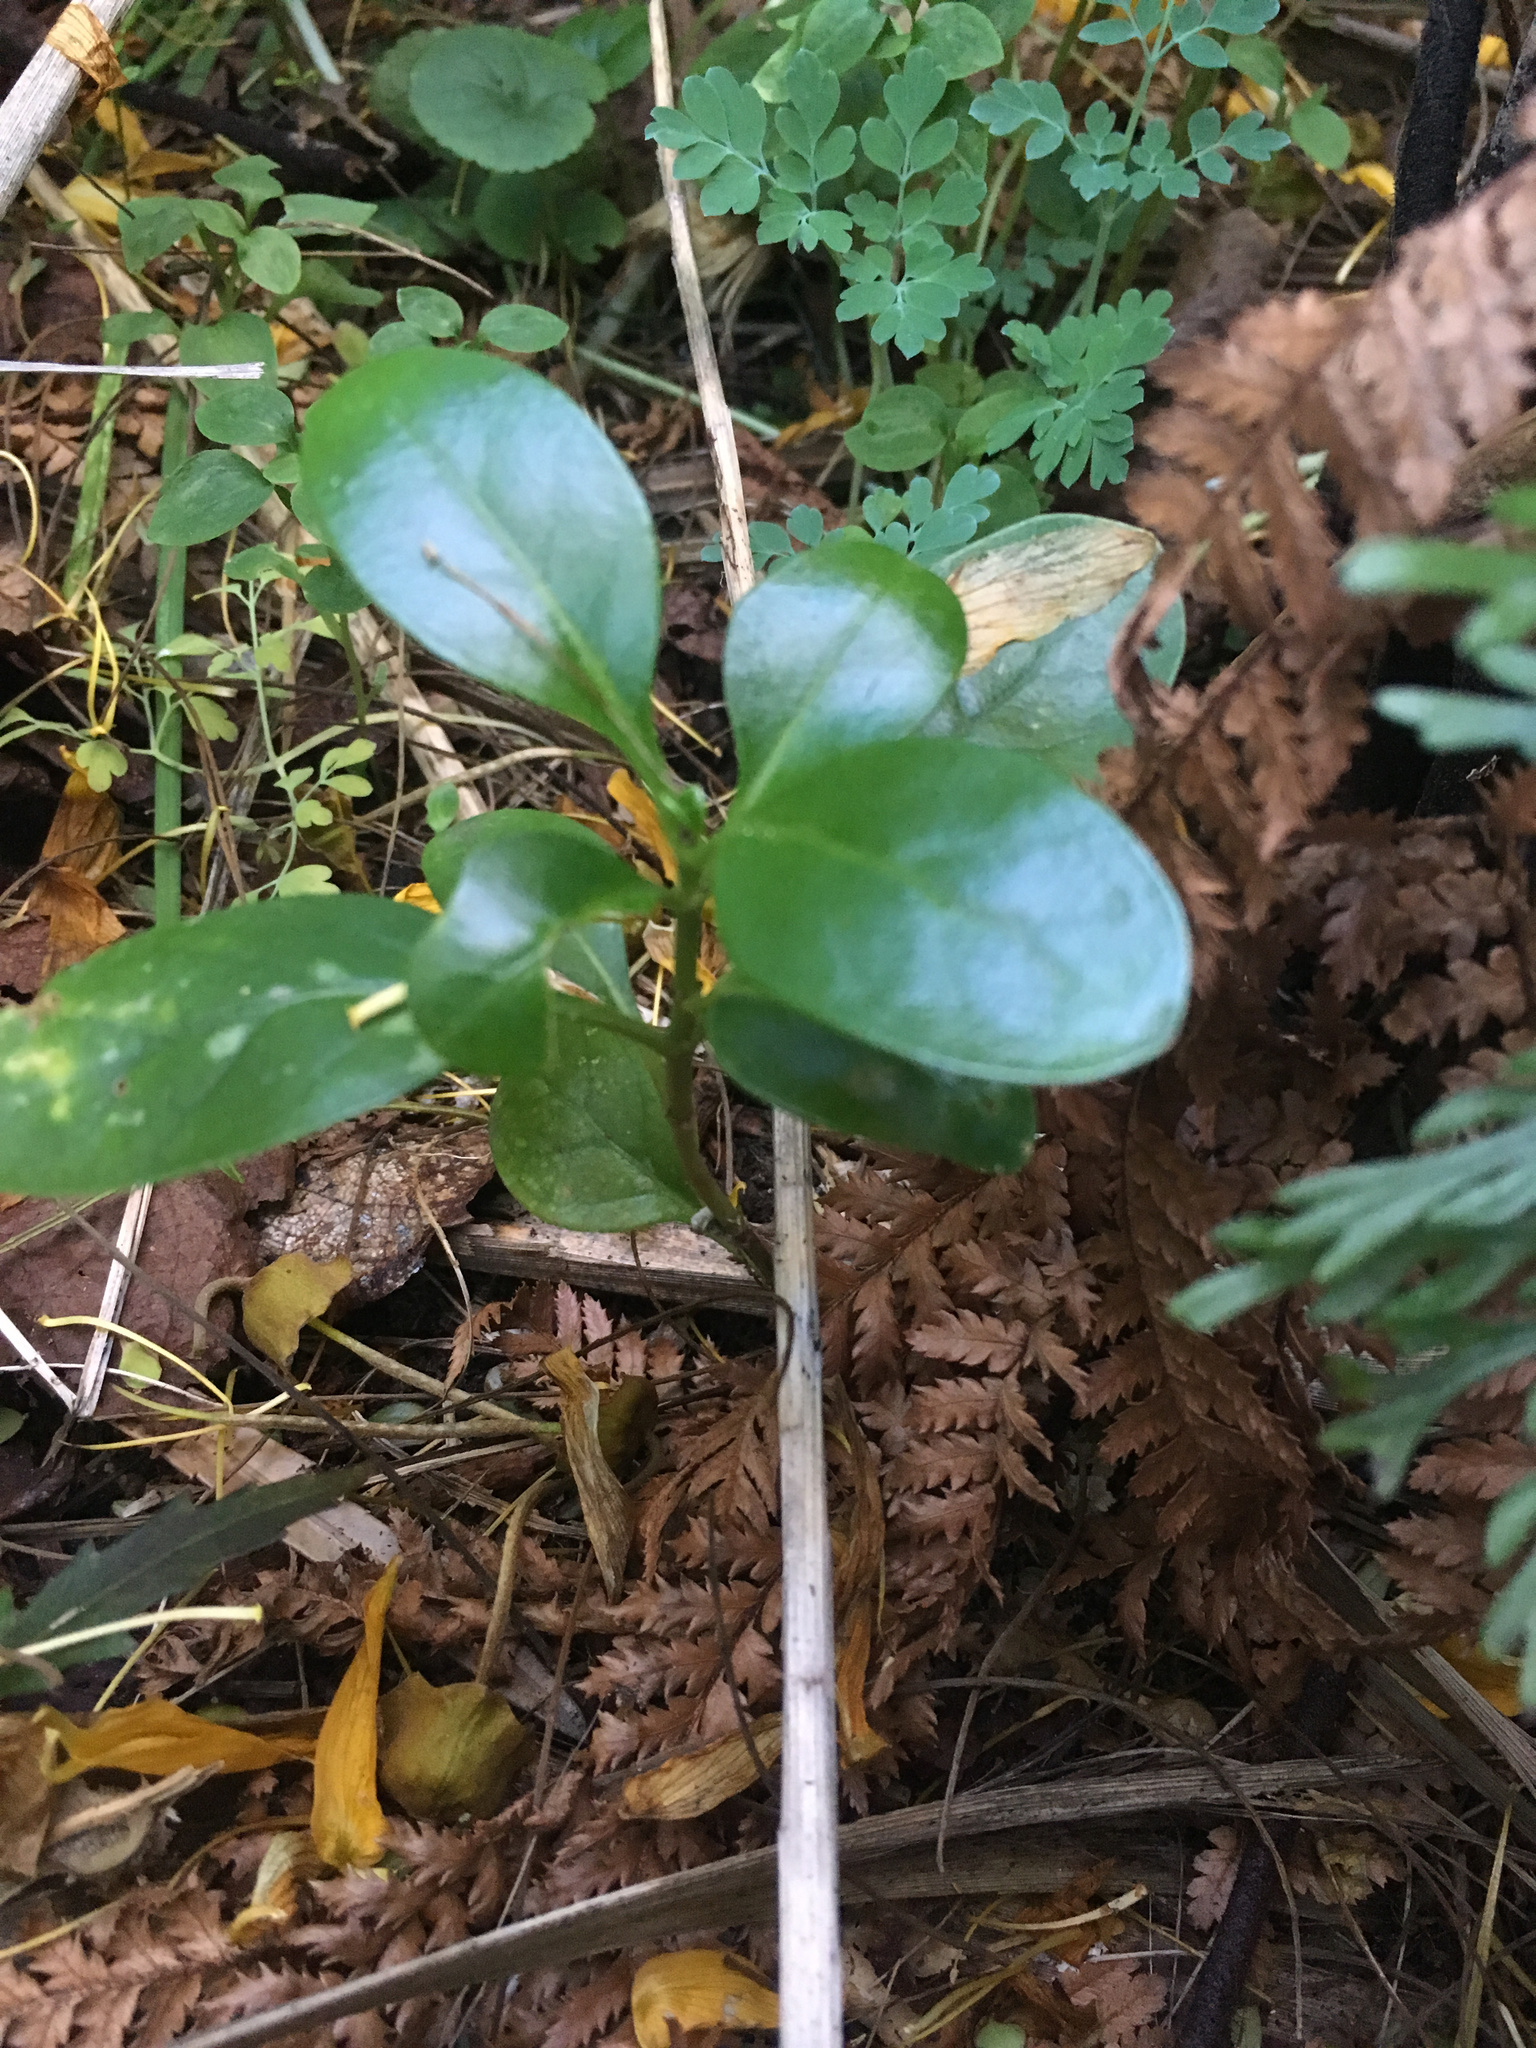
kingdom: Plantae
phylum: Tracheophyta
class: Magnoliopsida
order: Gentianales
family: Rubiaceae
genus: Coprosma
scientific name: Coprosma repens
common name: Tree bedstraw
